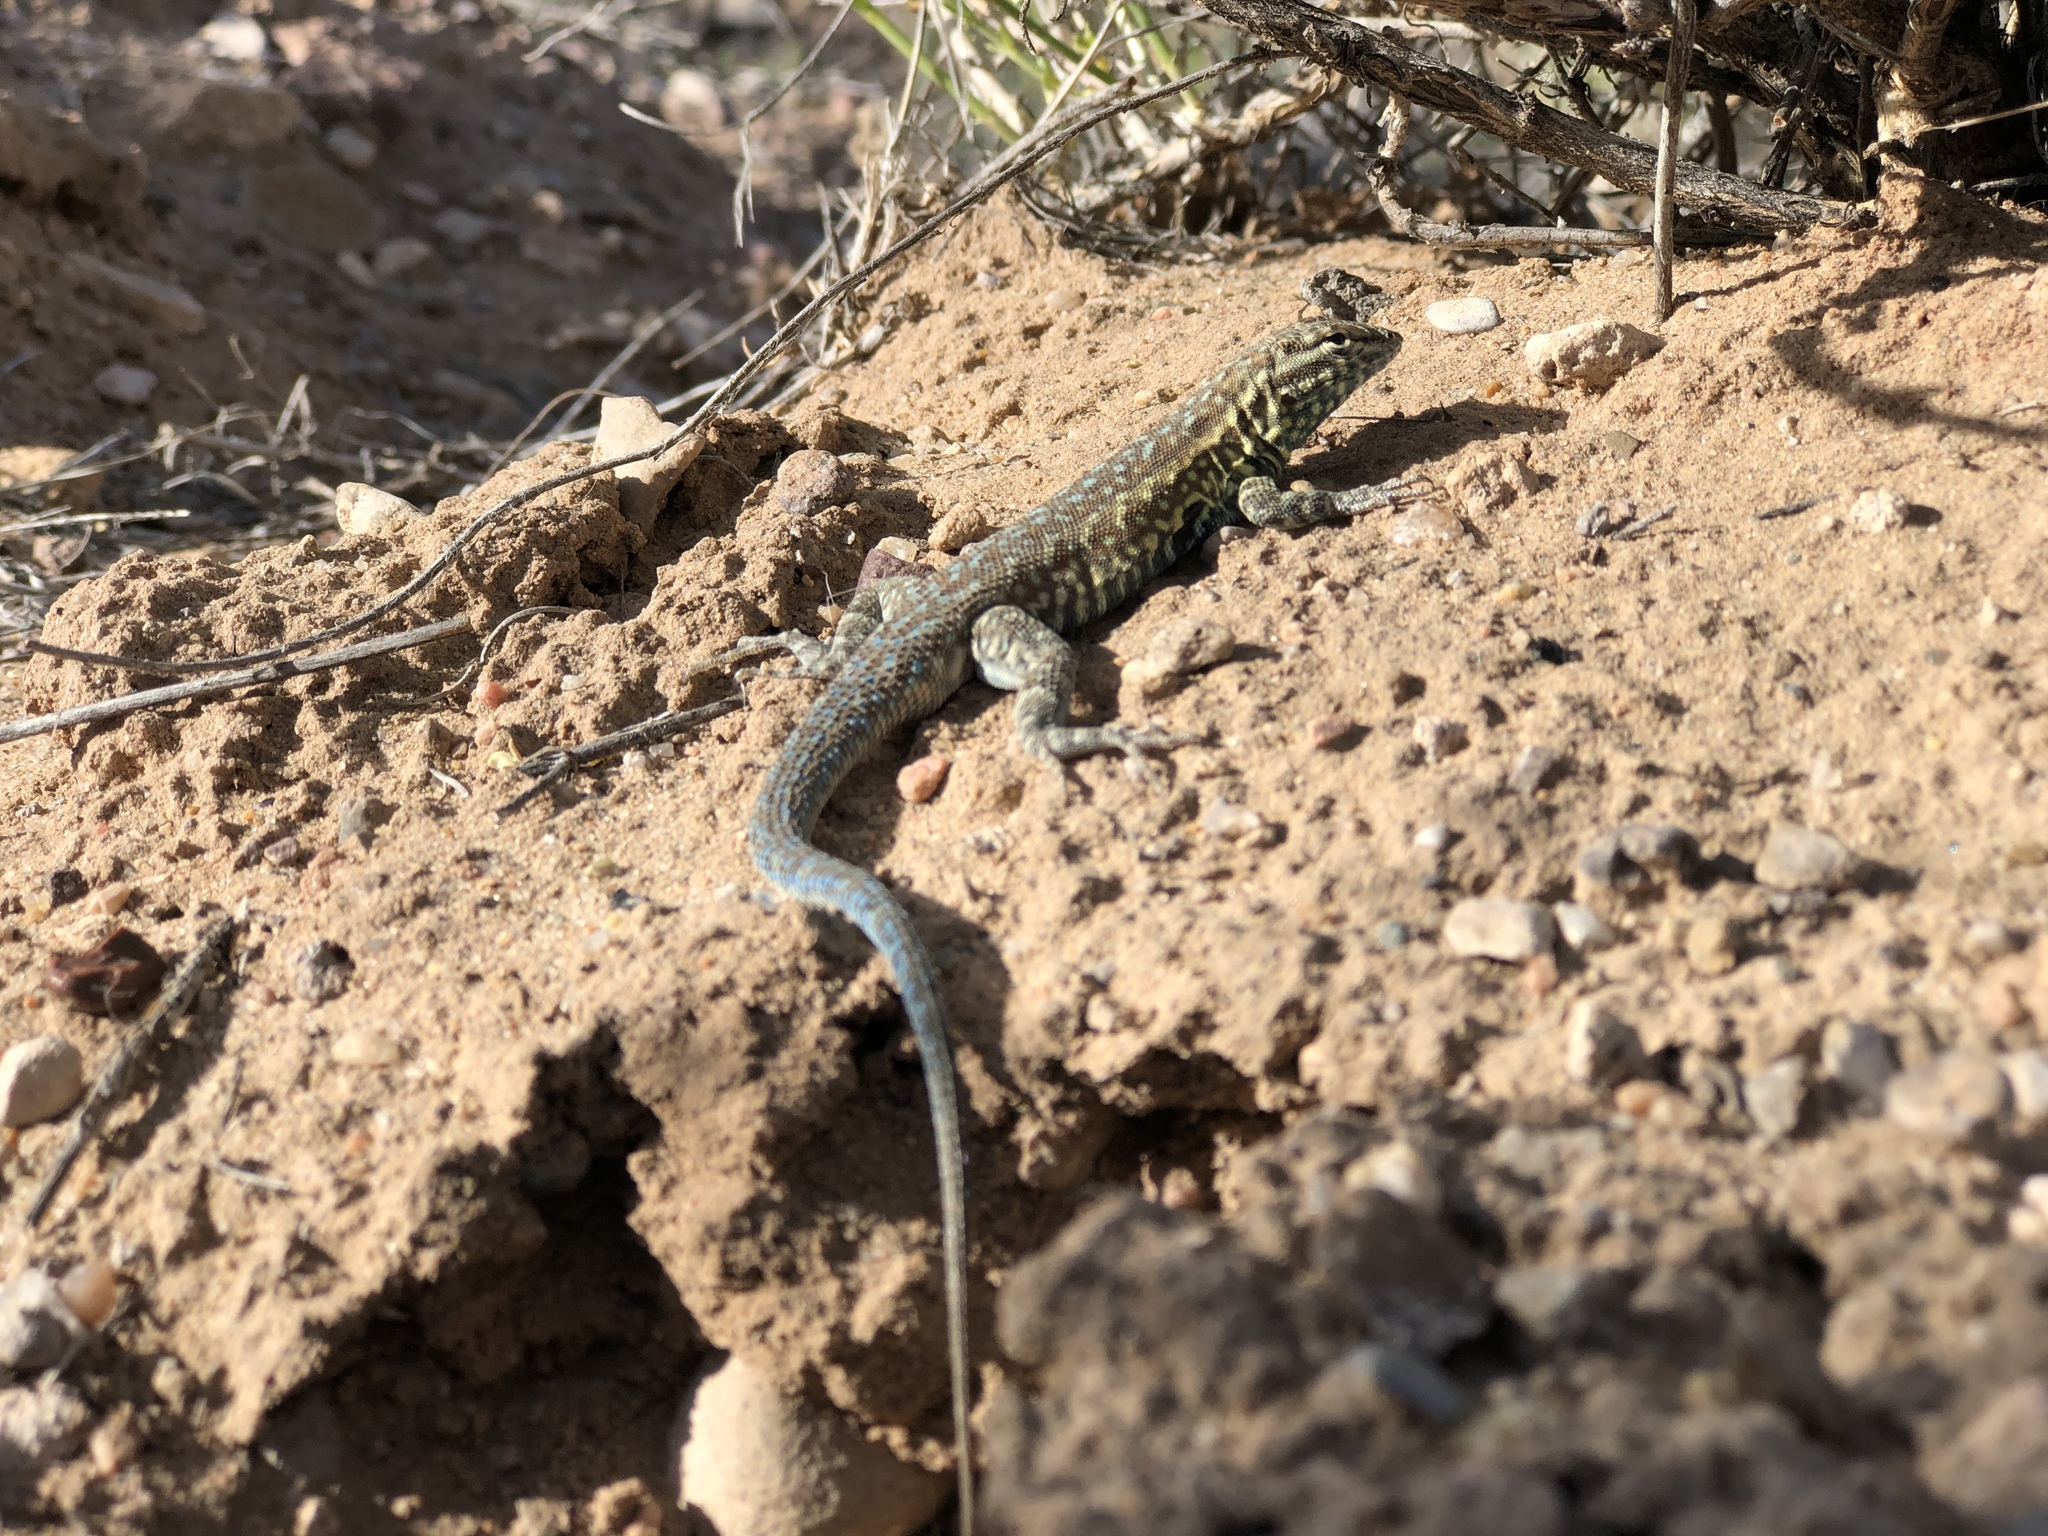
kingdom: Animalia
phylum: Chordata
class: Squamata
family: Phrynosomatidae
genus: Uta
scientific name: Uta stansburiana
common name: Side-blotched lizard
